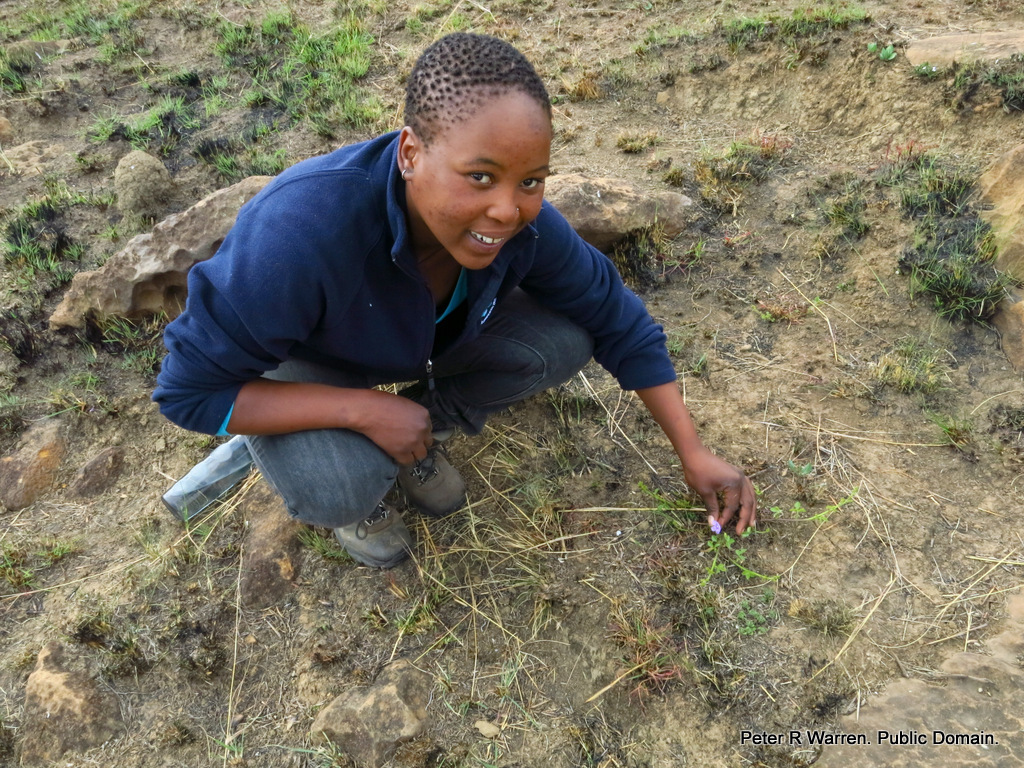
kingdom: Plantae
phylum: Tracheophyta
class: Magnoliopsida
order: Lamiales
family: Acanthaceae
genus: Ruellia
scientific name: Ruellia cordata
